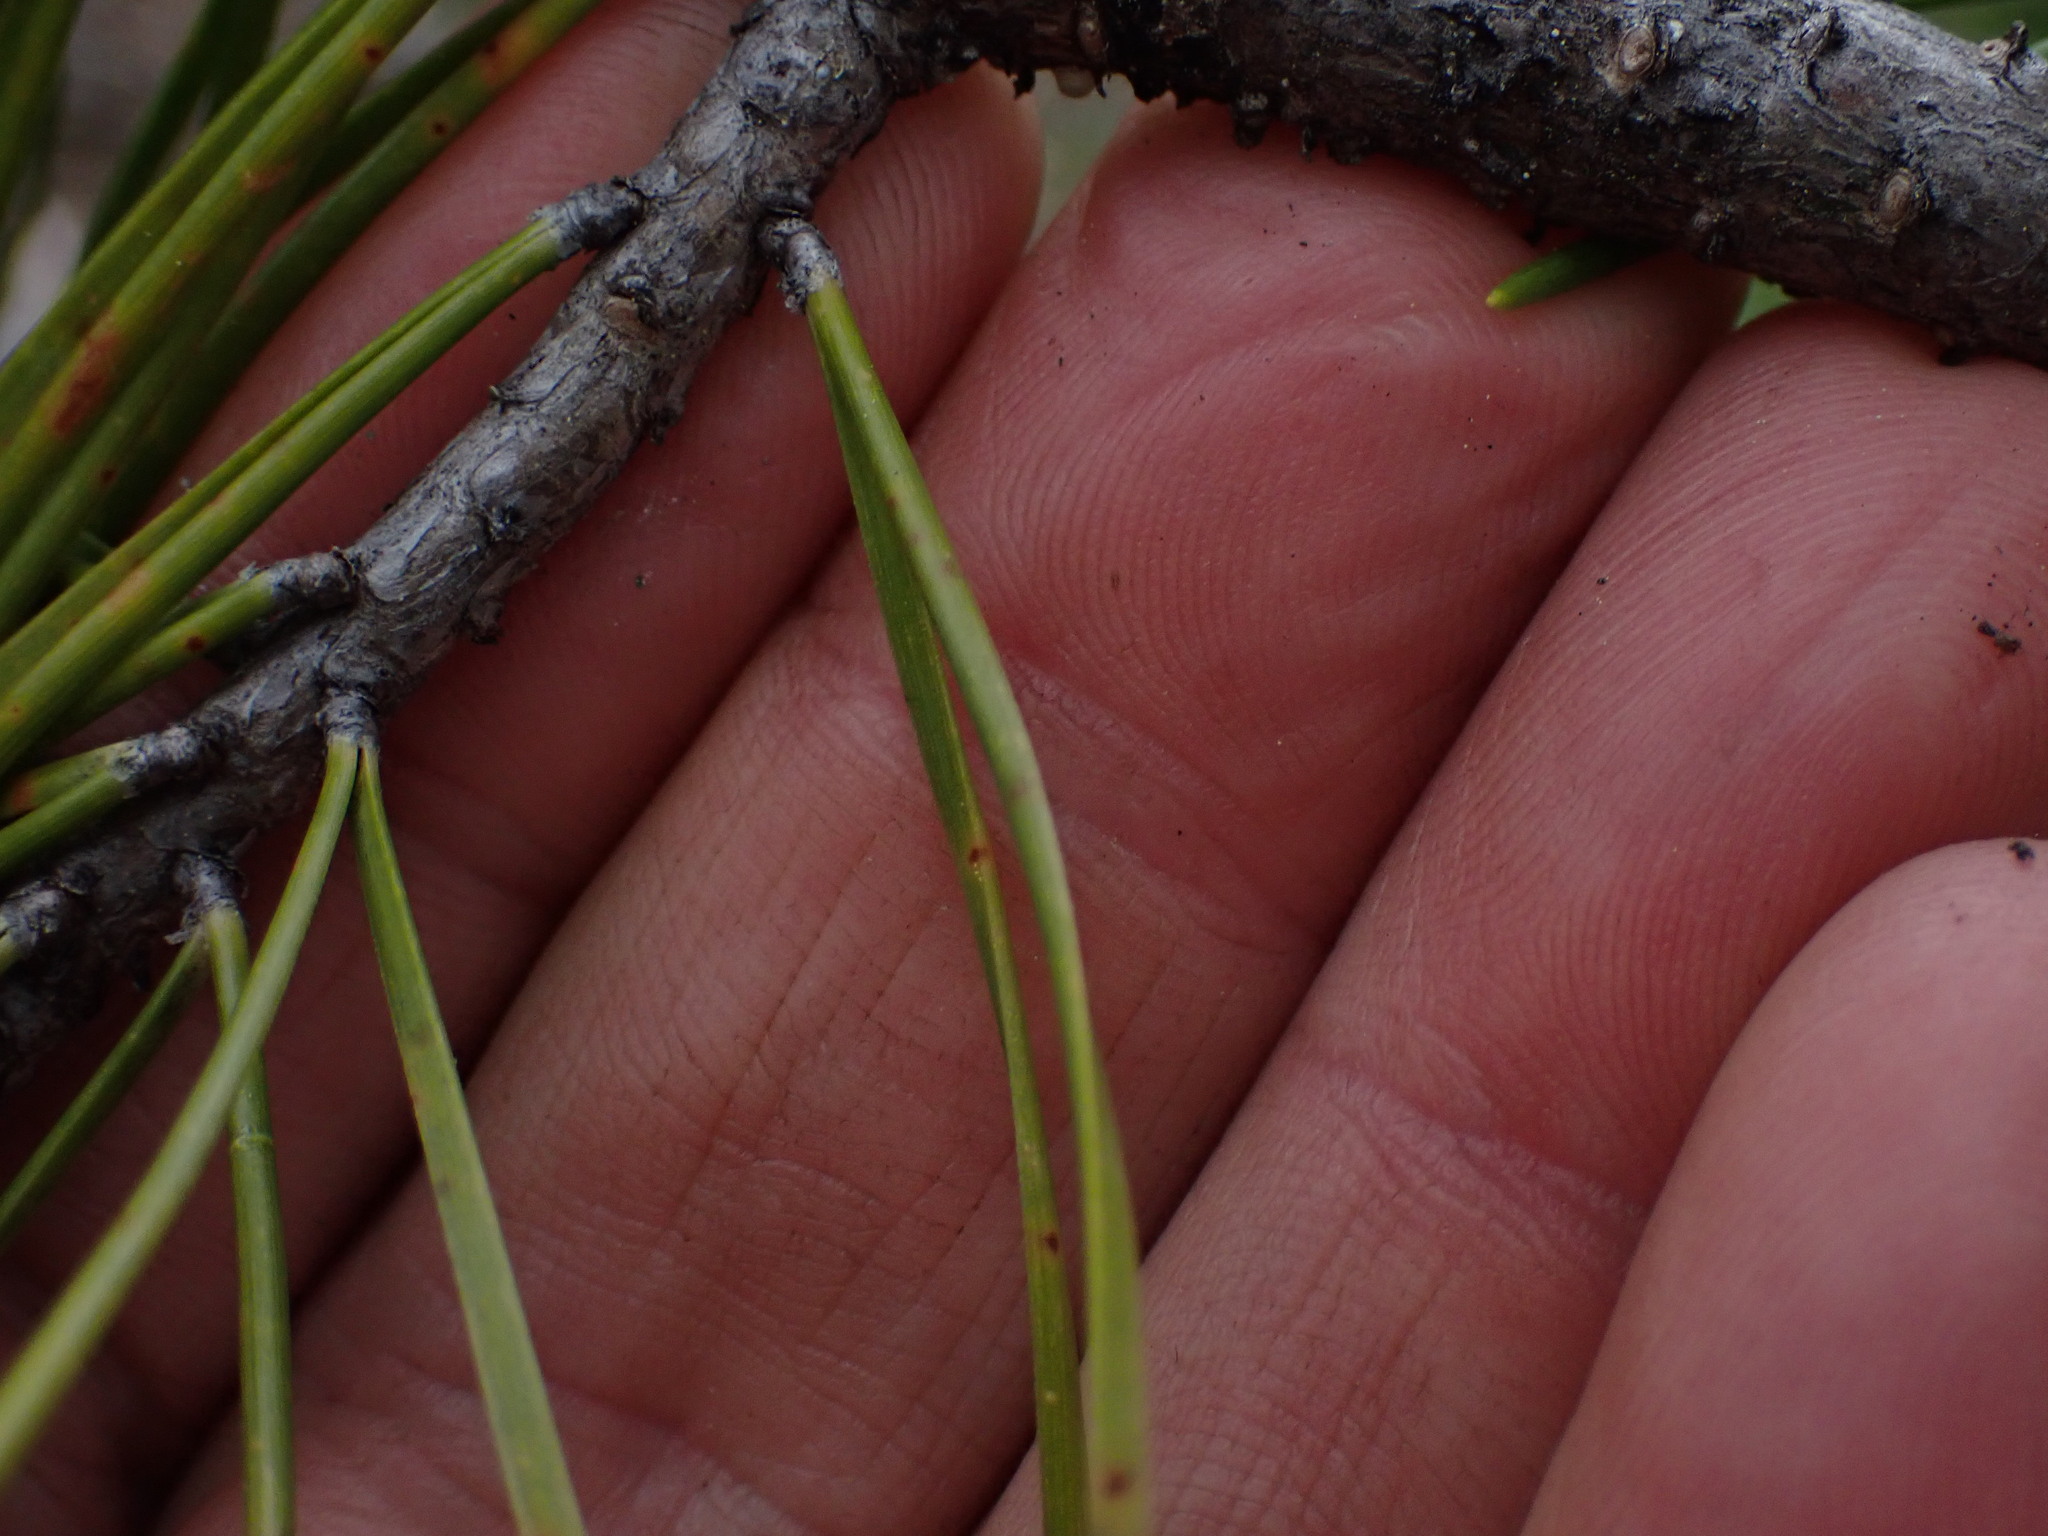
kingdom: Plantae
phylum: Tracheophyta
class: Pinopsida
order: Pinales
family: Pinaceae
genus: Pinus
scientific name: Pinus contorta
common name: Lodgepole pine
